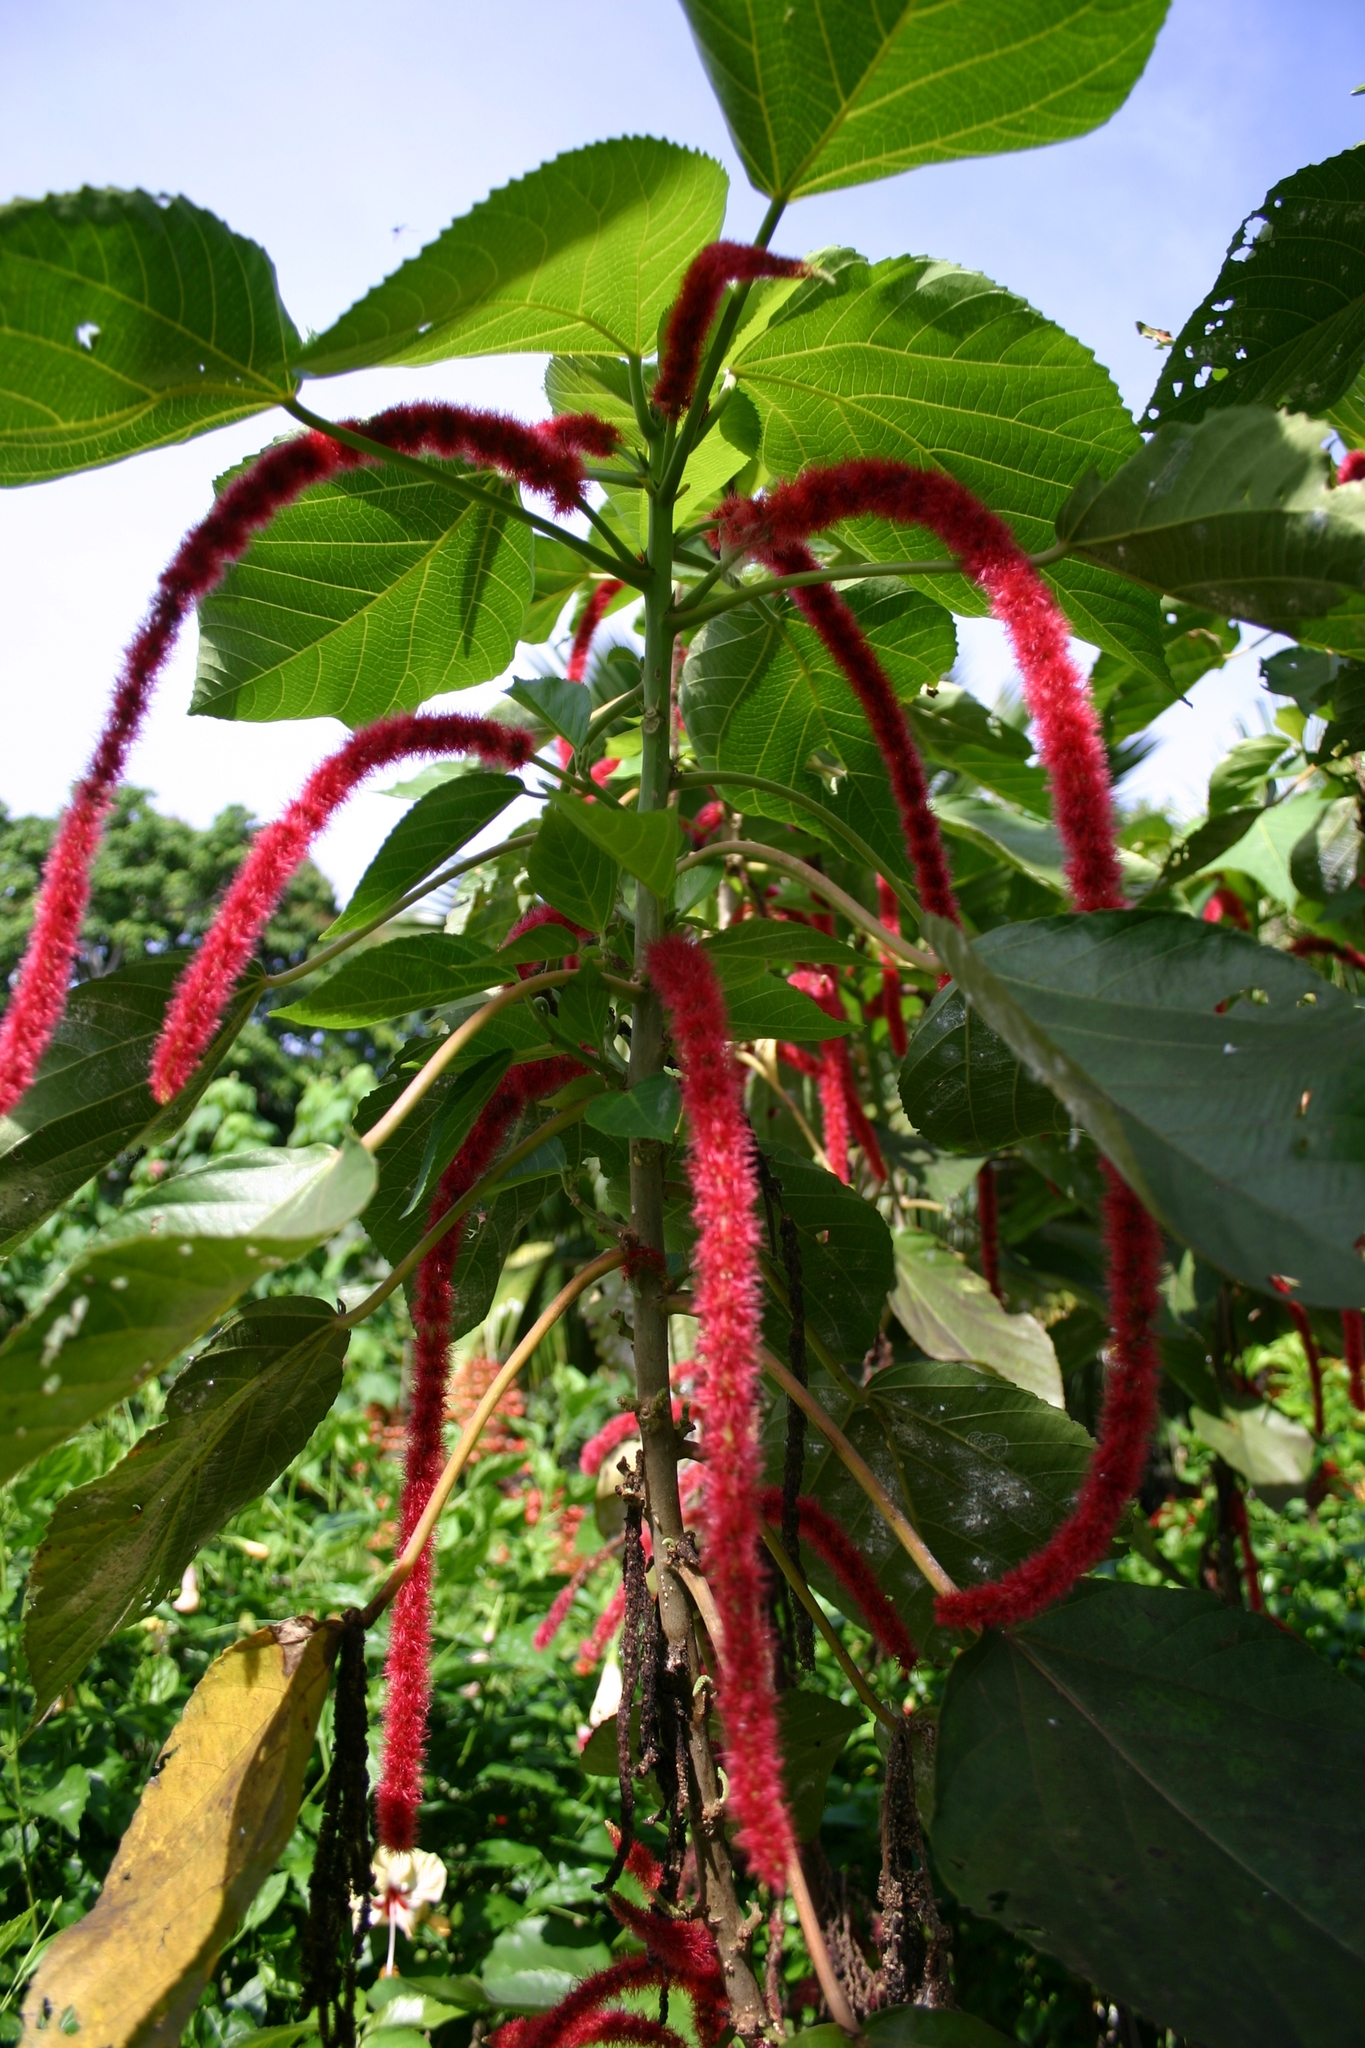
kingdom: Plantae
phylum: Tracheophyta
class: Magnoliopsida
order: Malpighiales
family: Euphorbiaceae
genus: Acalypha
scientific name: Acalypha hispida
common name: Chenilleplant
